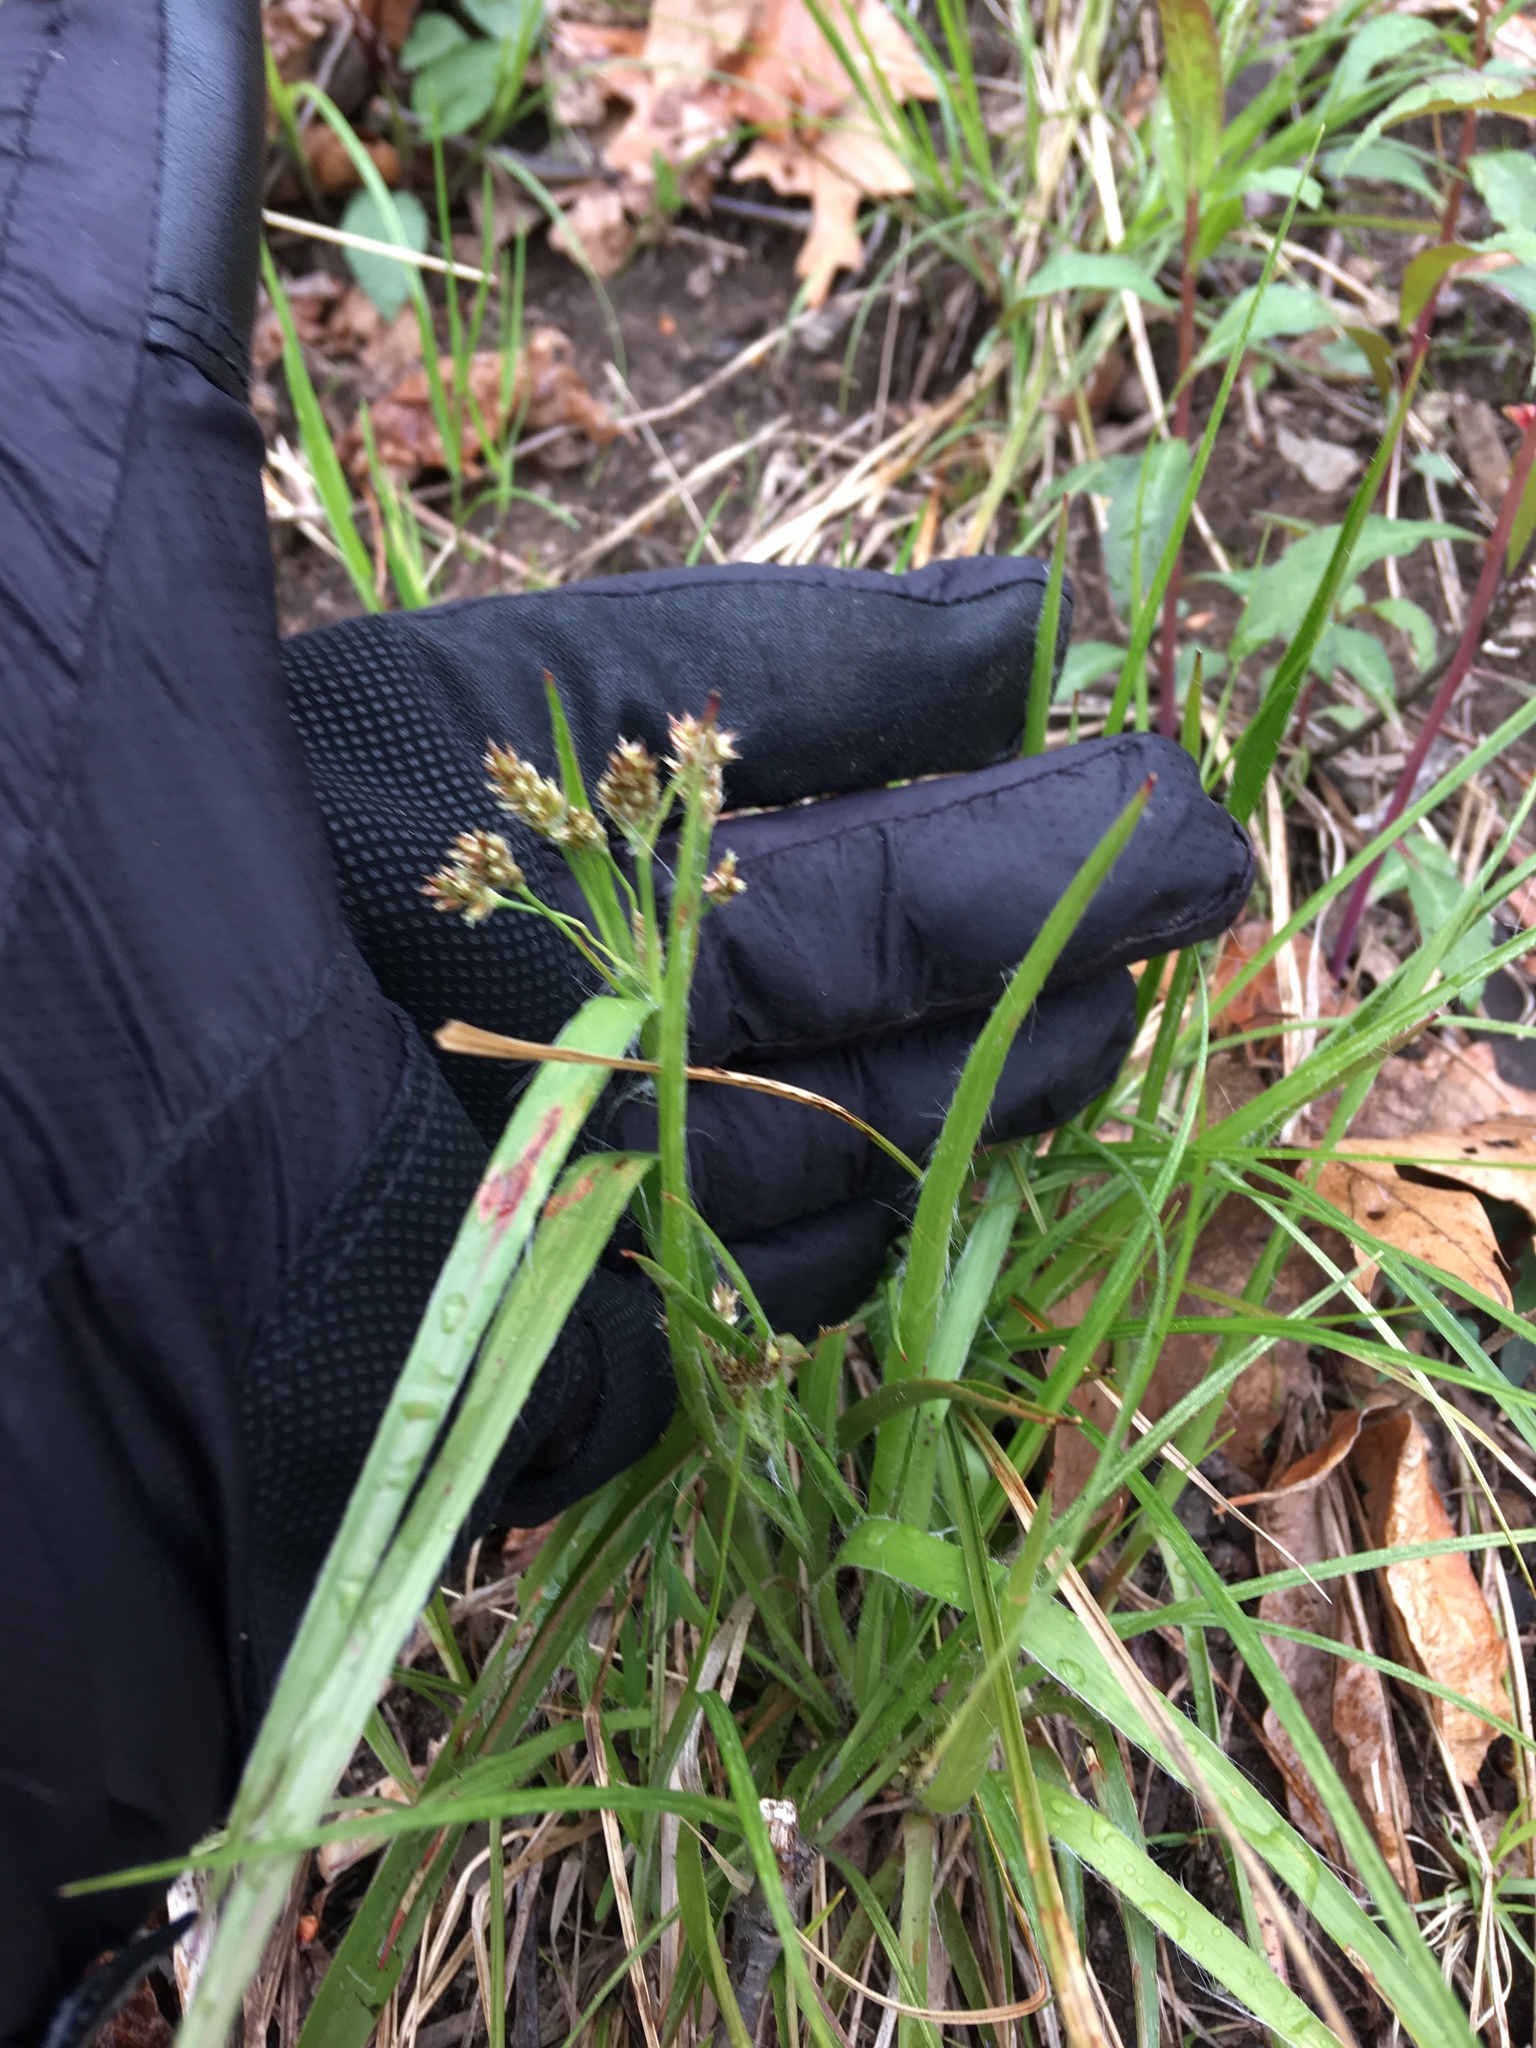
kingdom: Plantae
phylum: Tracheophyta
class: Liliopsida
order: Poales
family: Juncaceae
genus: Luzula
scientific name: Luzula multiflora
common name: Heath wood-rush
